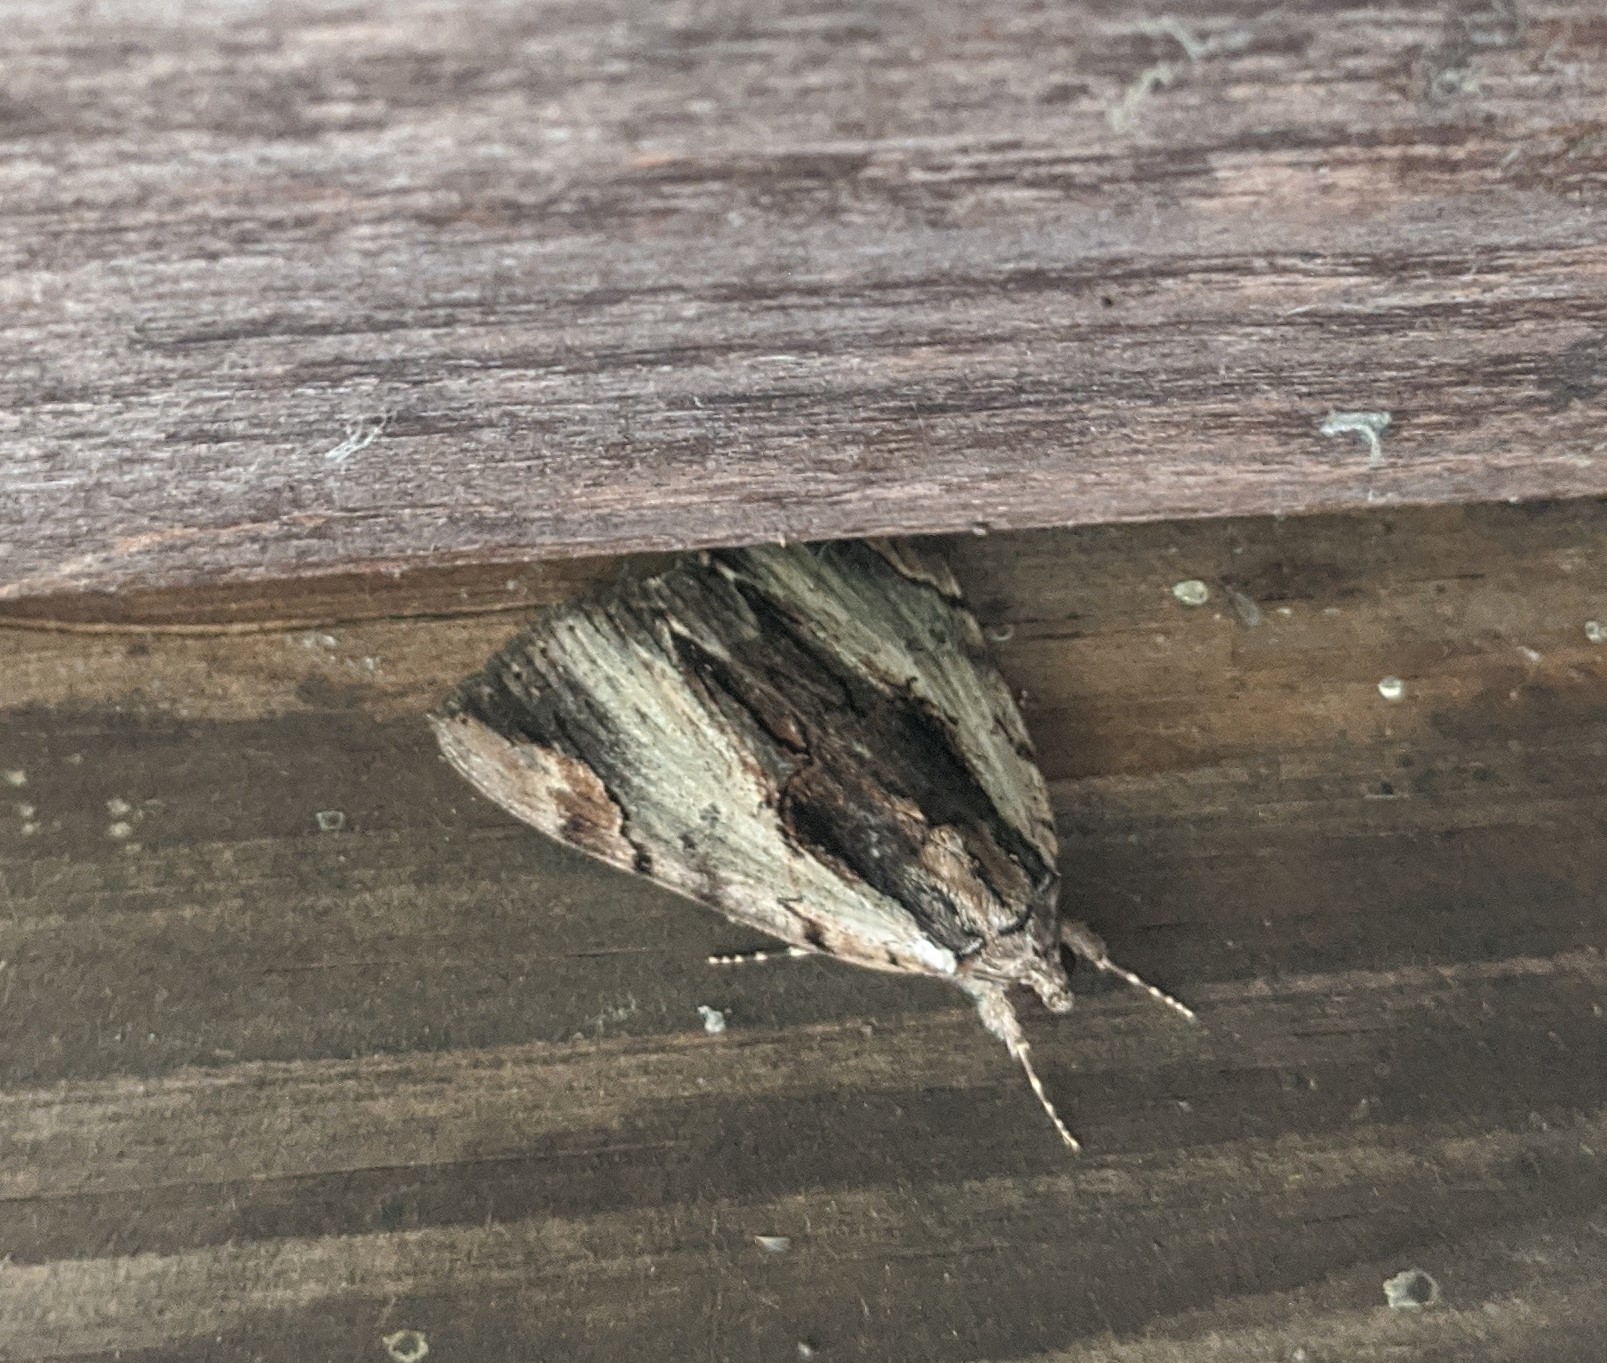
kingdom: Animalia
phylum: Arthropoda
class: Insecta
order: Lepidoptera
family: Erebidae
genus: Catocala
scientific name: Catocala ultronia
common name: Ultronia underwing
